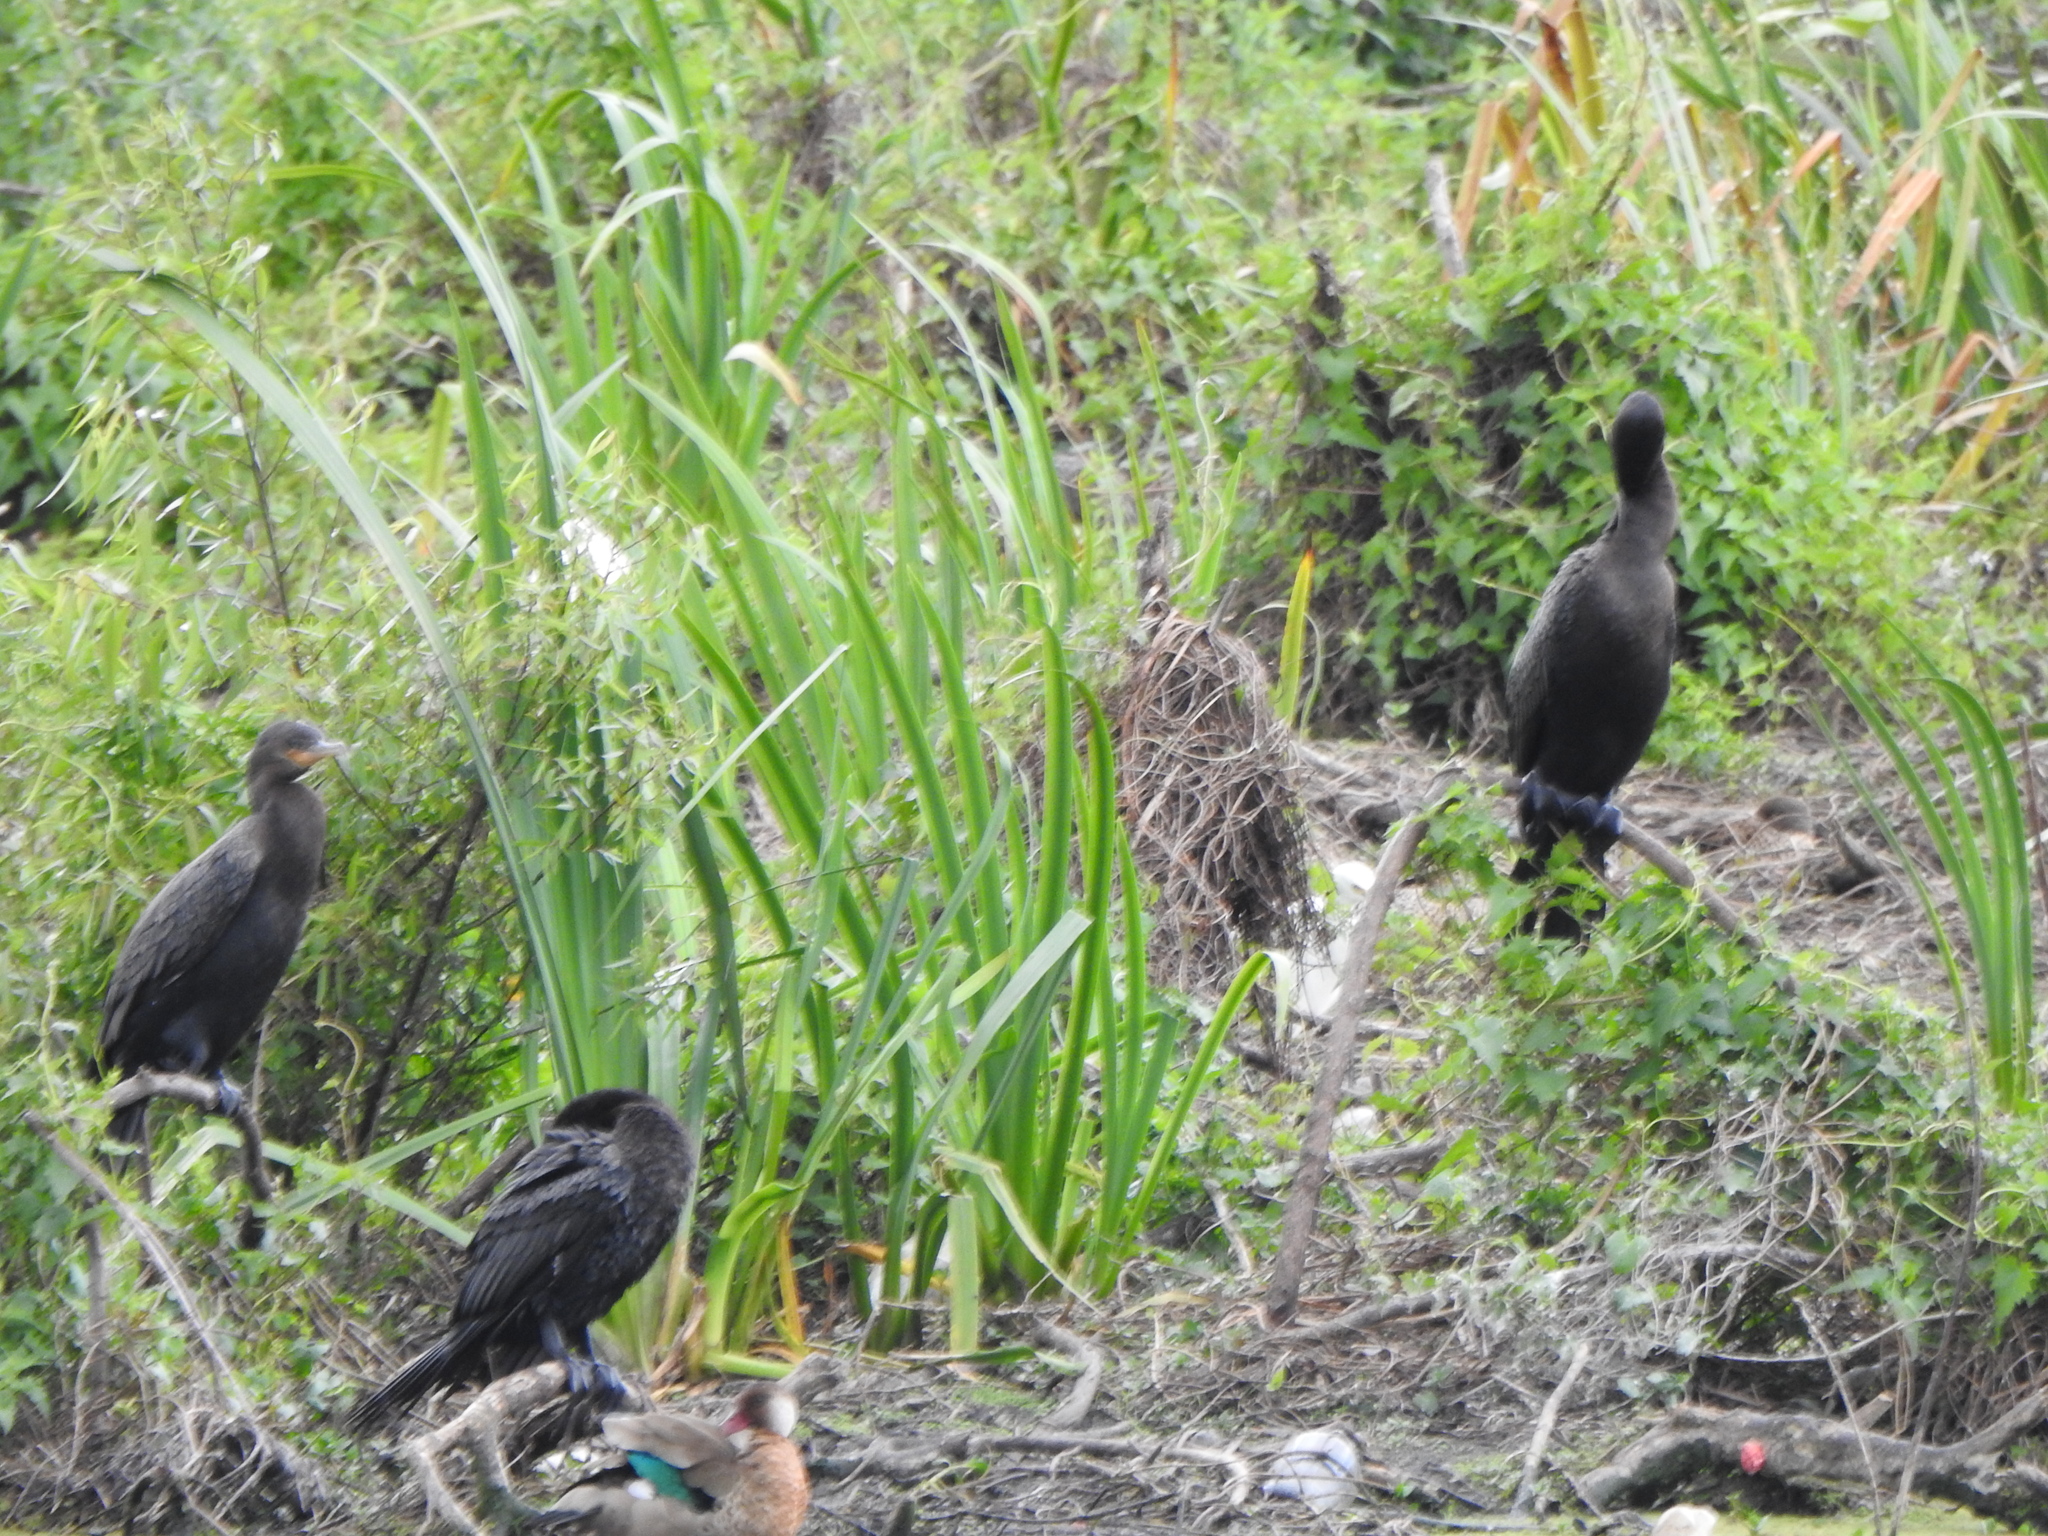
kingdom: Animalia
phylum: Chordata
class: Aves
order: Suliformes
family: Phalacrocoracidae
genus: Phalacrocorax
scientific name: Phalacrocorax brasilianus
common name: Neotropic cormorant
